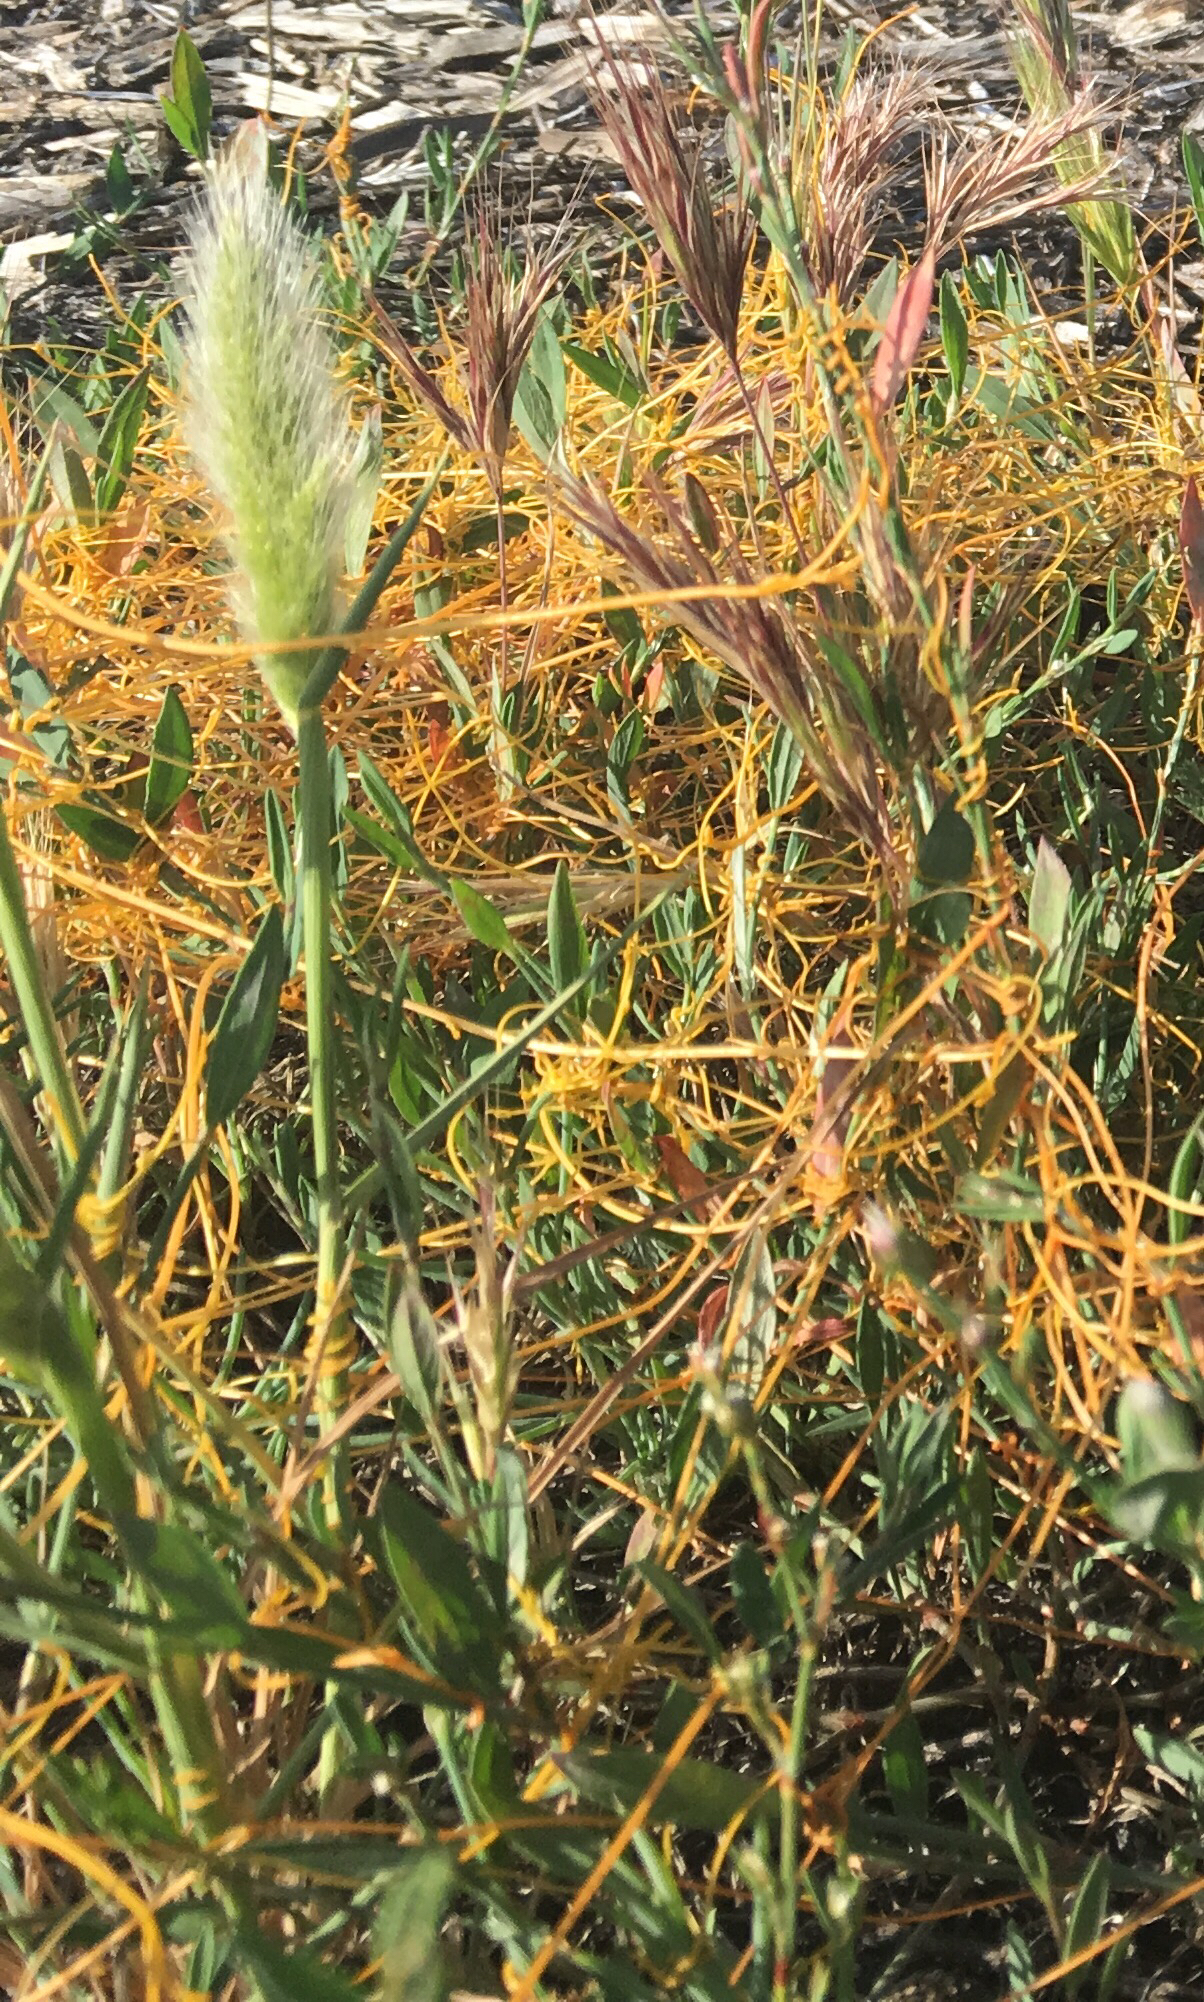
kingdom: Plantae
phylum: Tracheophyta
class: Liliopsida
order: Poales
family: Poaceae
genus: Polypogon
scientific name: Polypogon monspeliensis
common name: Annual rabbitsfoot grass
